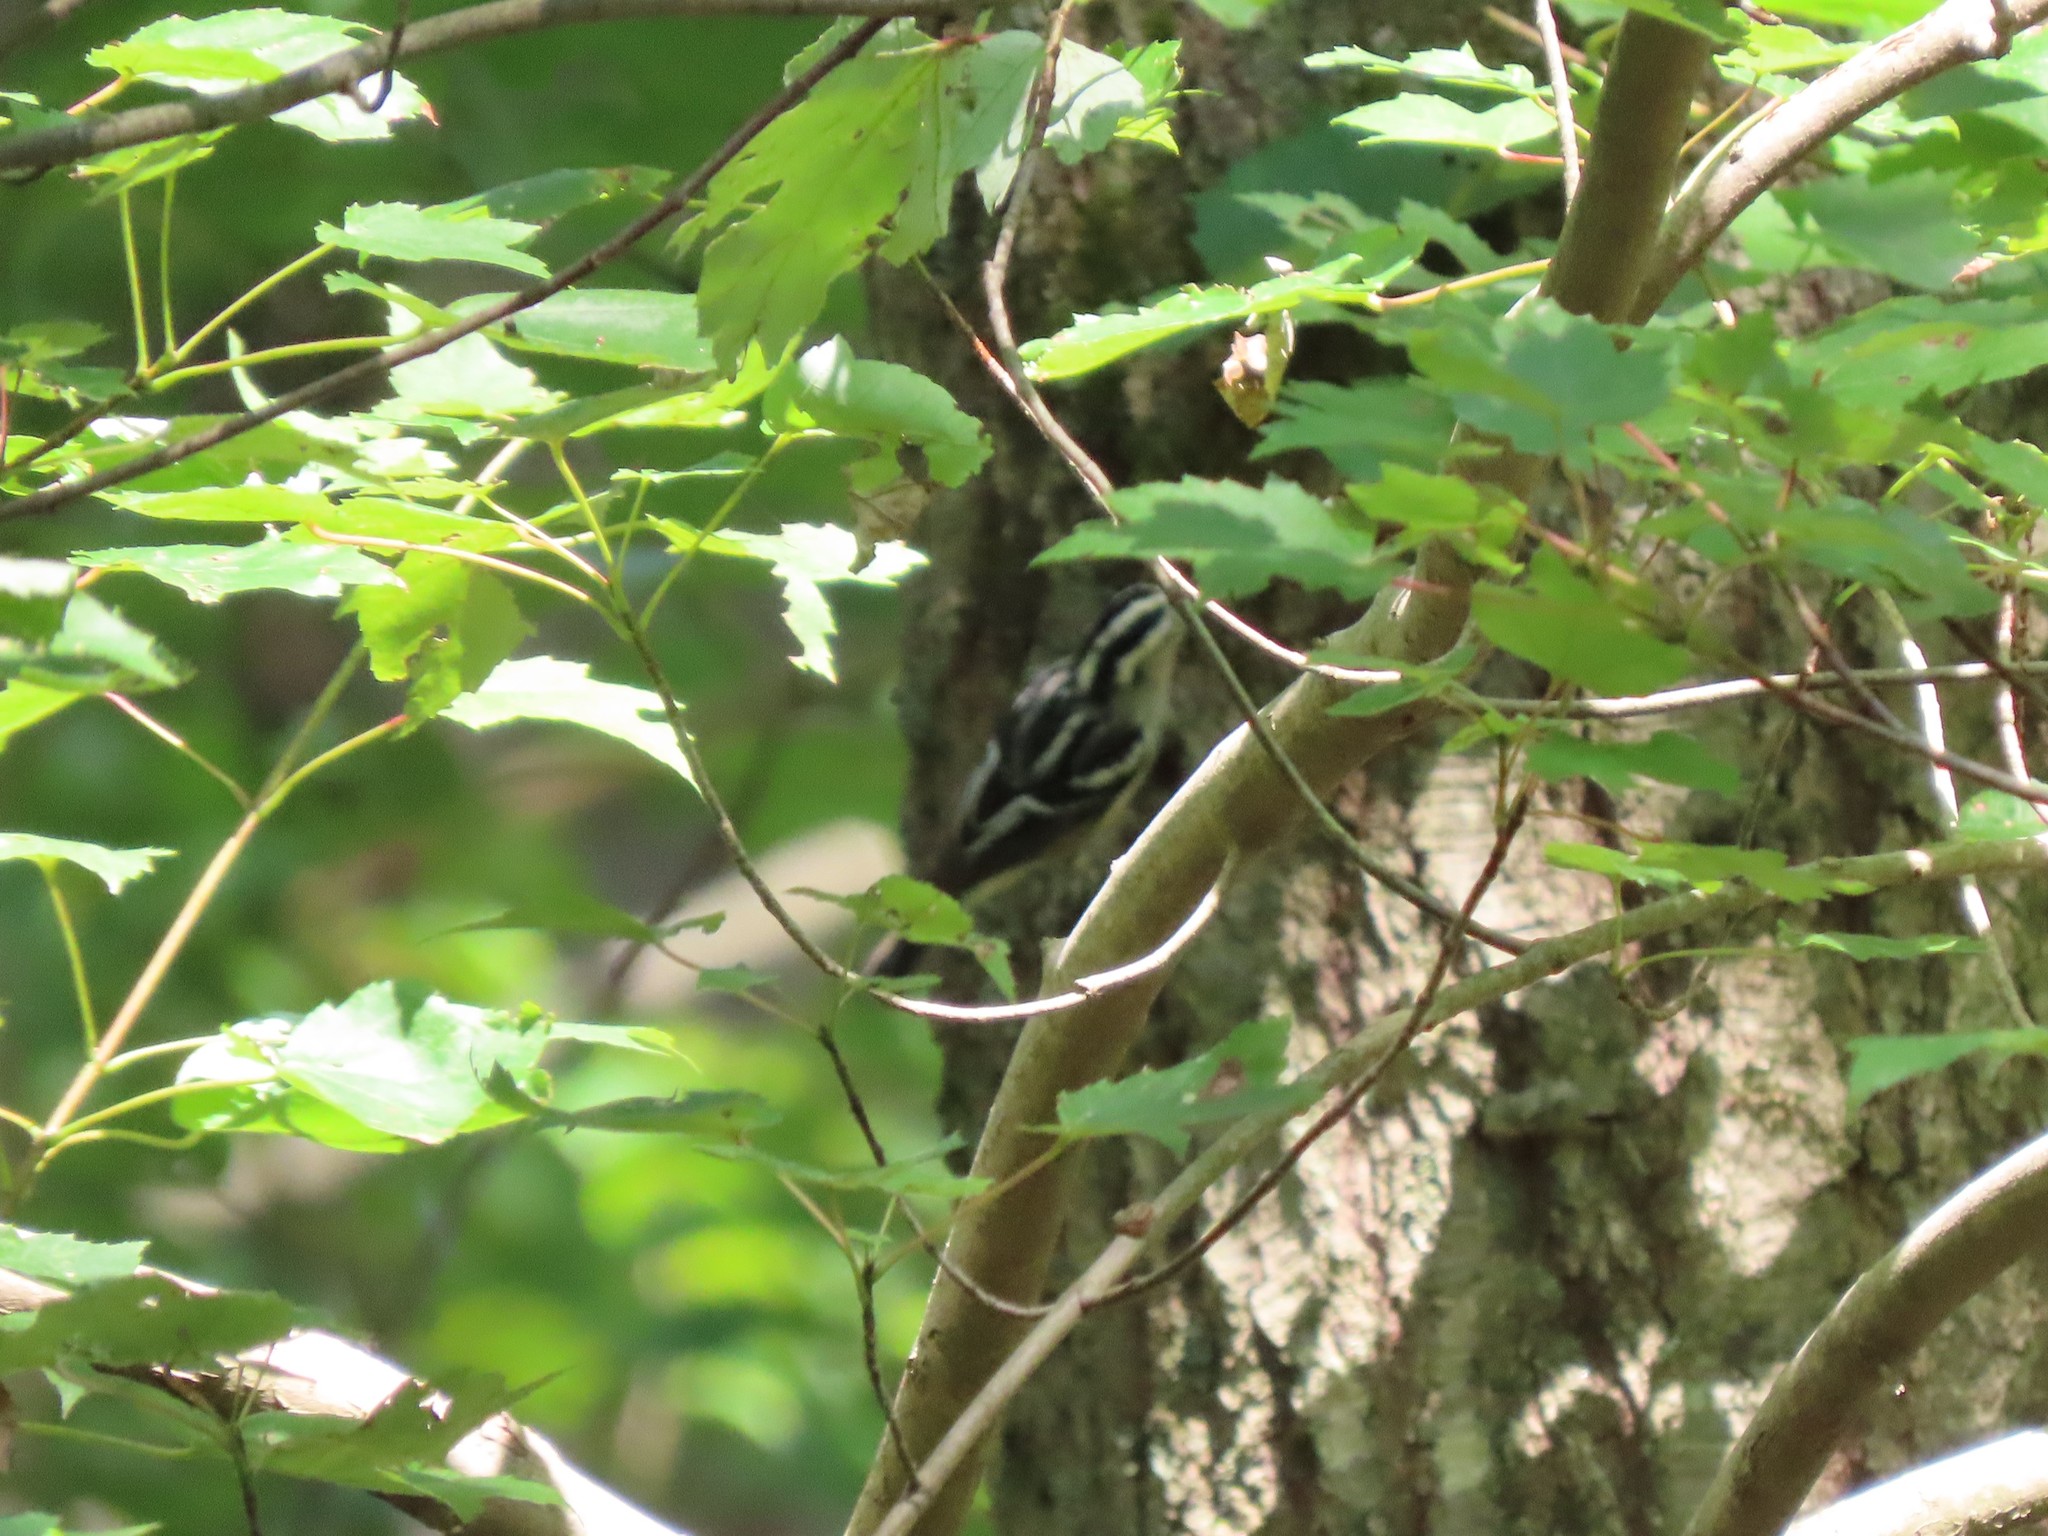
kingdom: Animalia
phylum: Chordata
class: Aves
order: Passeriformes
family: Parulidae
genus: Mniotilta
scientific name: Mniotilta varia
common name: Black-and-white warbler
